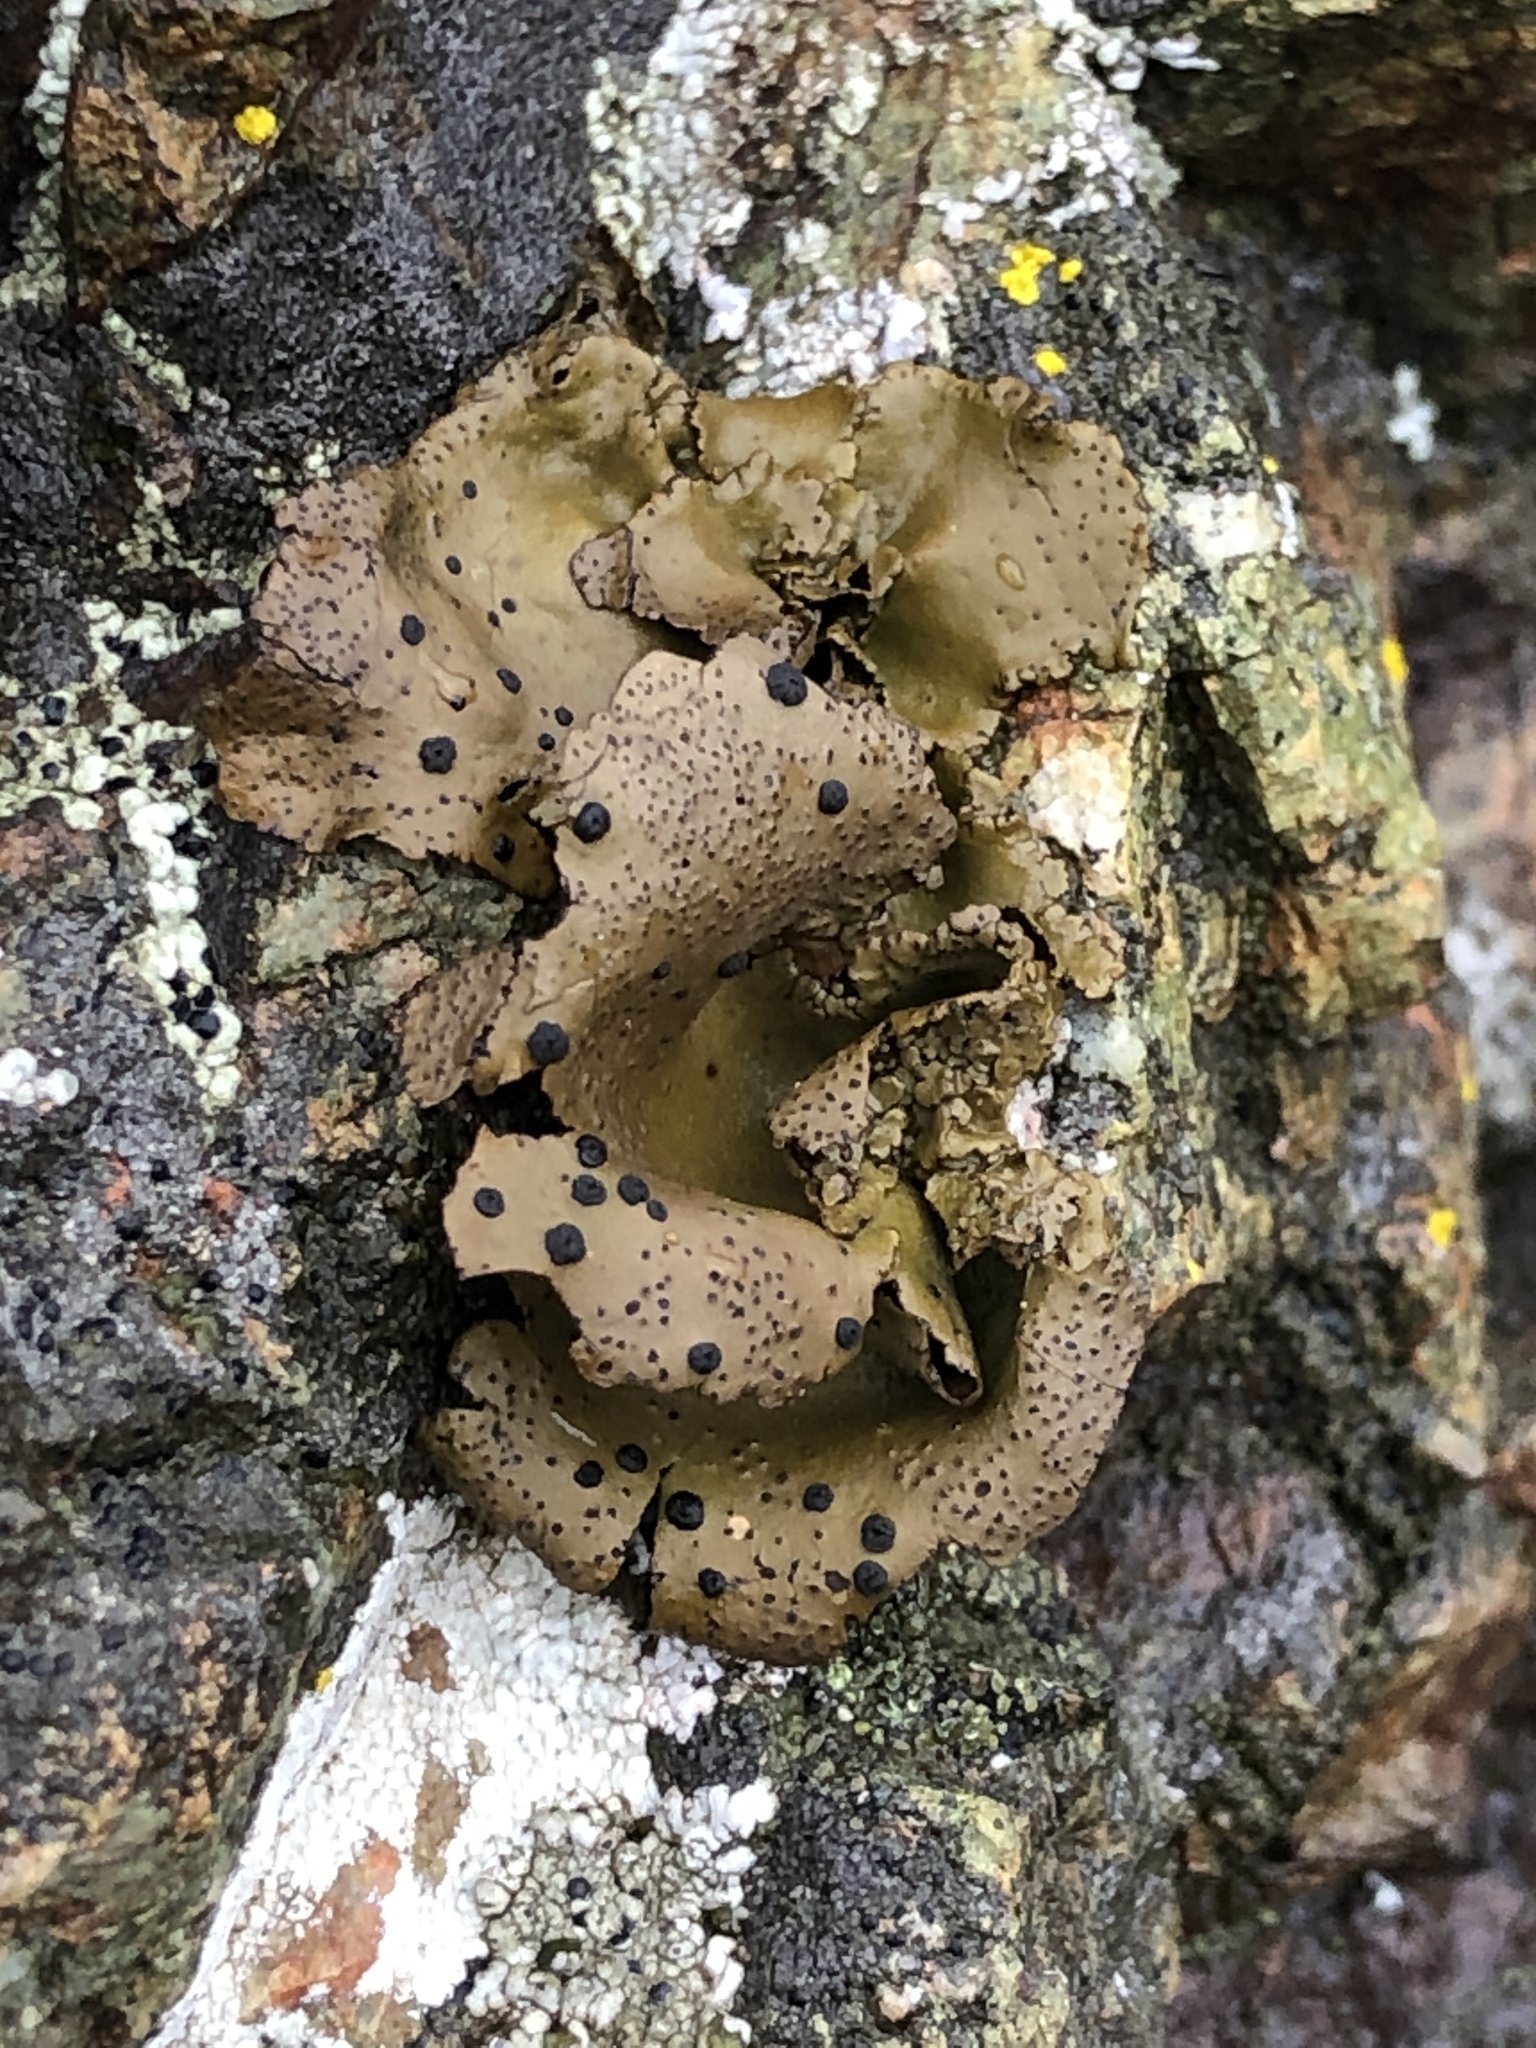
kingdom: Fungi
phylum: Ascomycota
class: Lecanoromycetes
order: Umbilicariales
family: Umbilicariaceae
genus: Umbilicaria
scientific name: Umbilicaria phaea
